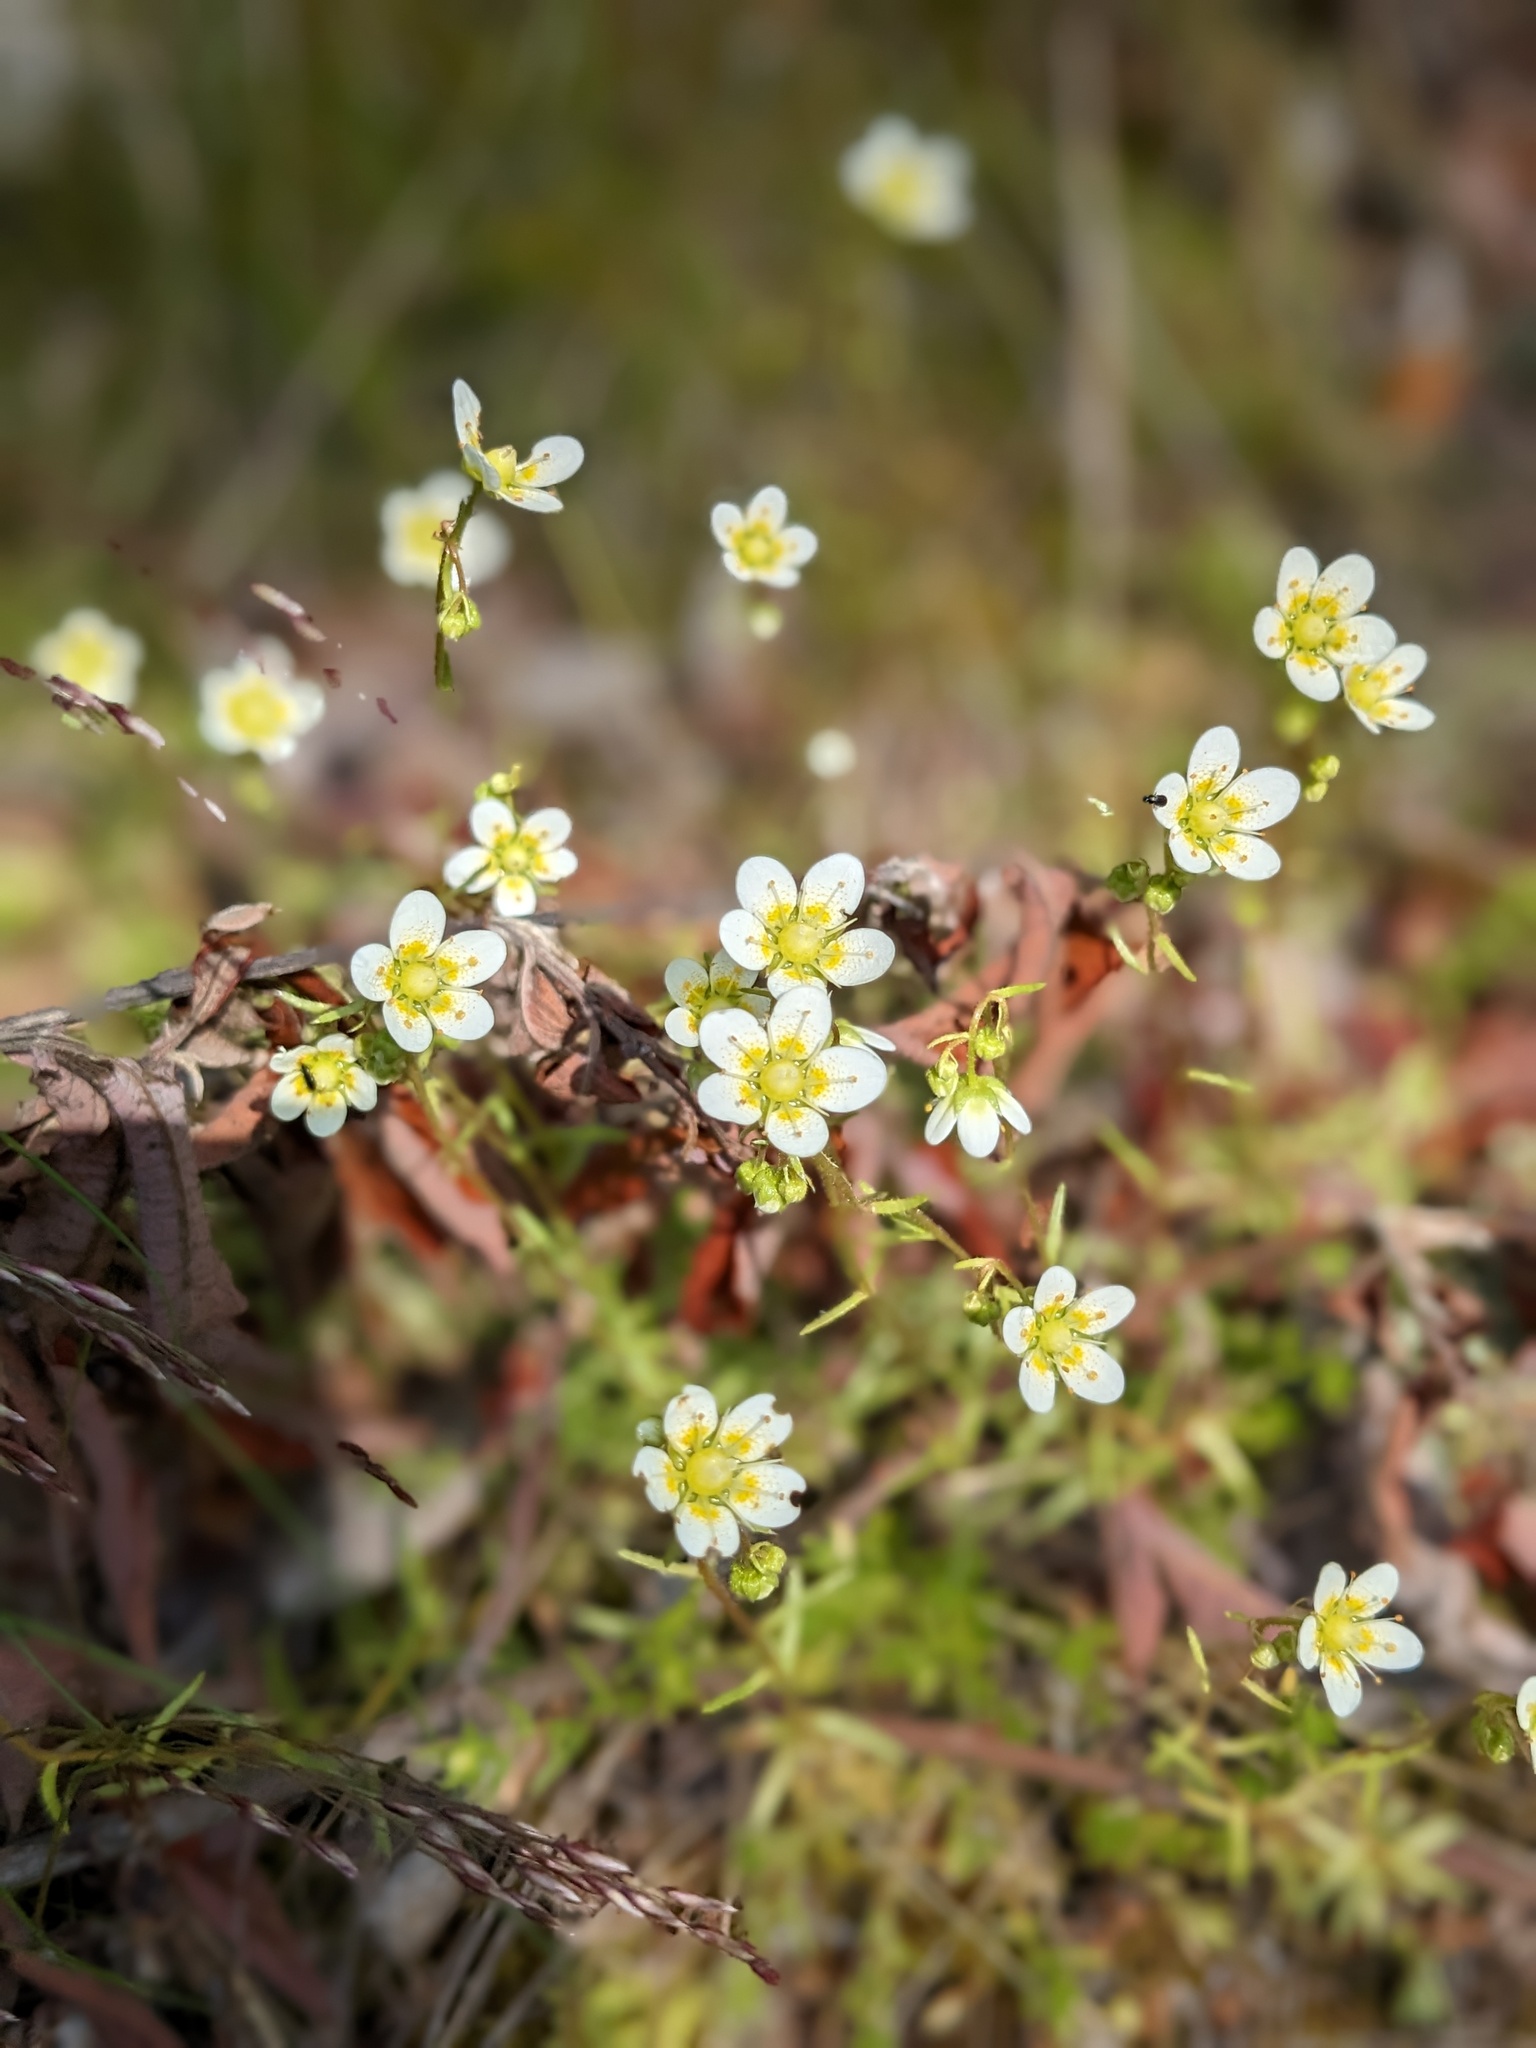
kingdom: Plantae
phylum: Tracheophyta
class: Magnoliopsida
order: Saxifragales
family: Saxifragaceae
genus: Saxifraga
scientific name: Saxifraga aspera
